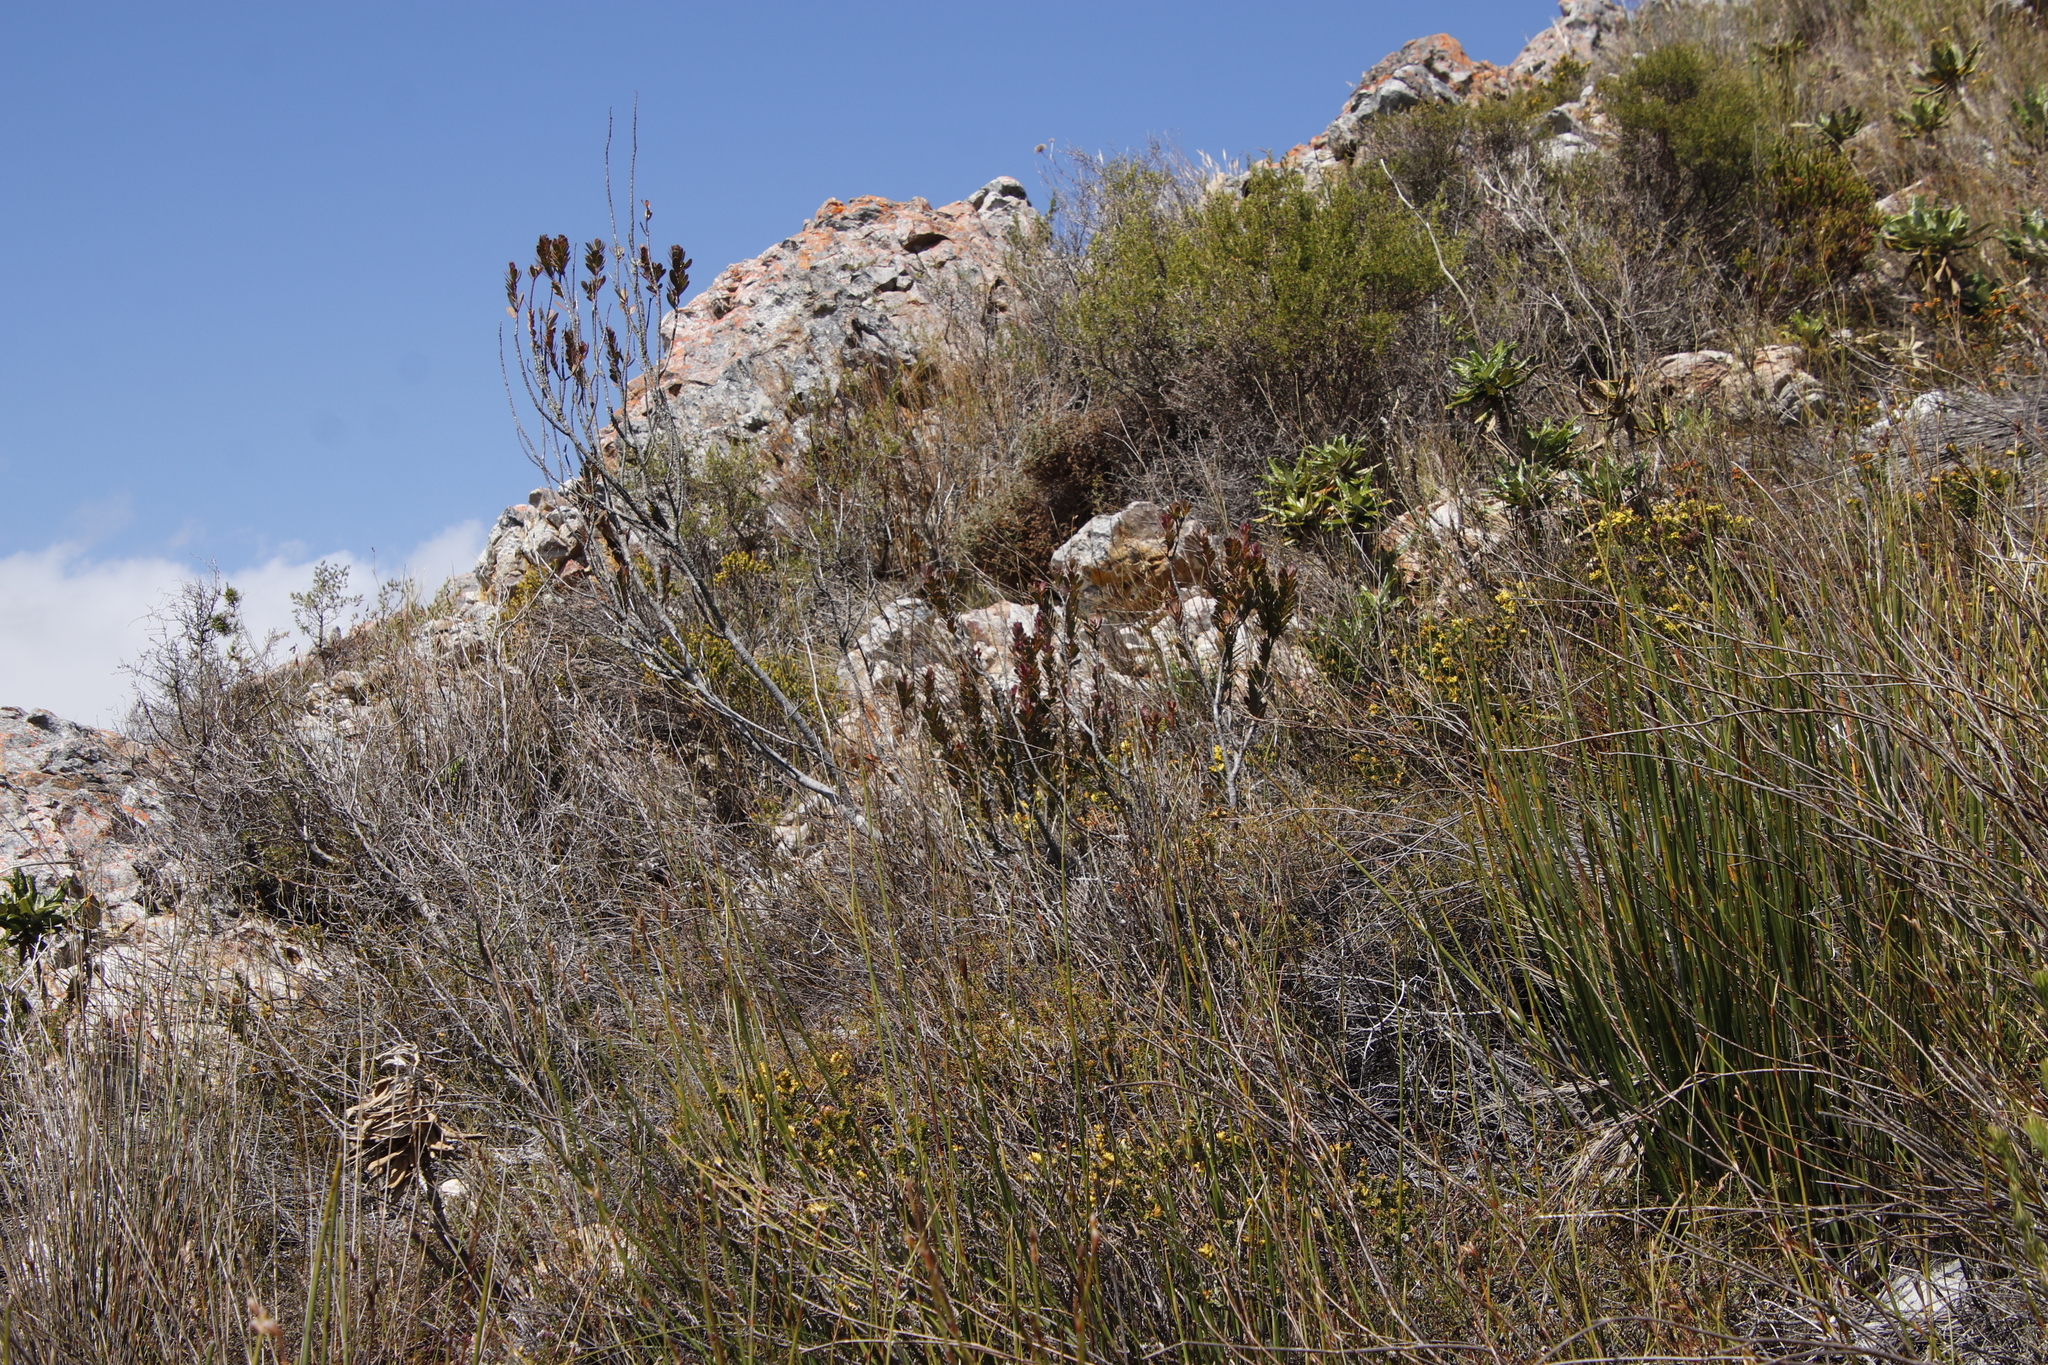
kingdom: Plantae
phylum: Tracheophyta
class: Magnoliopsida
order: Santalales
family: Santalaceae
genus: Osyris
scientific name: Osyris compressa
